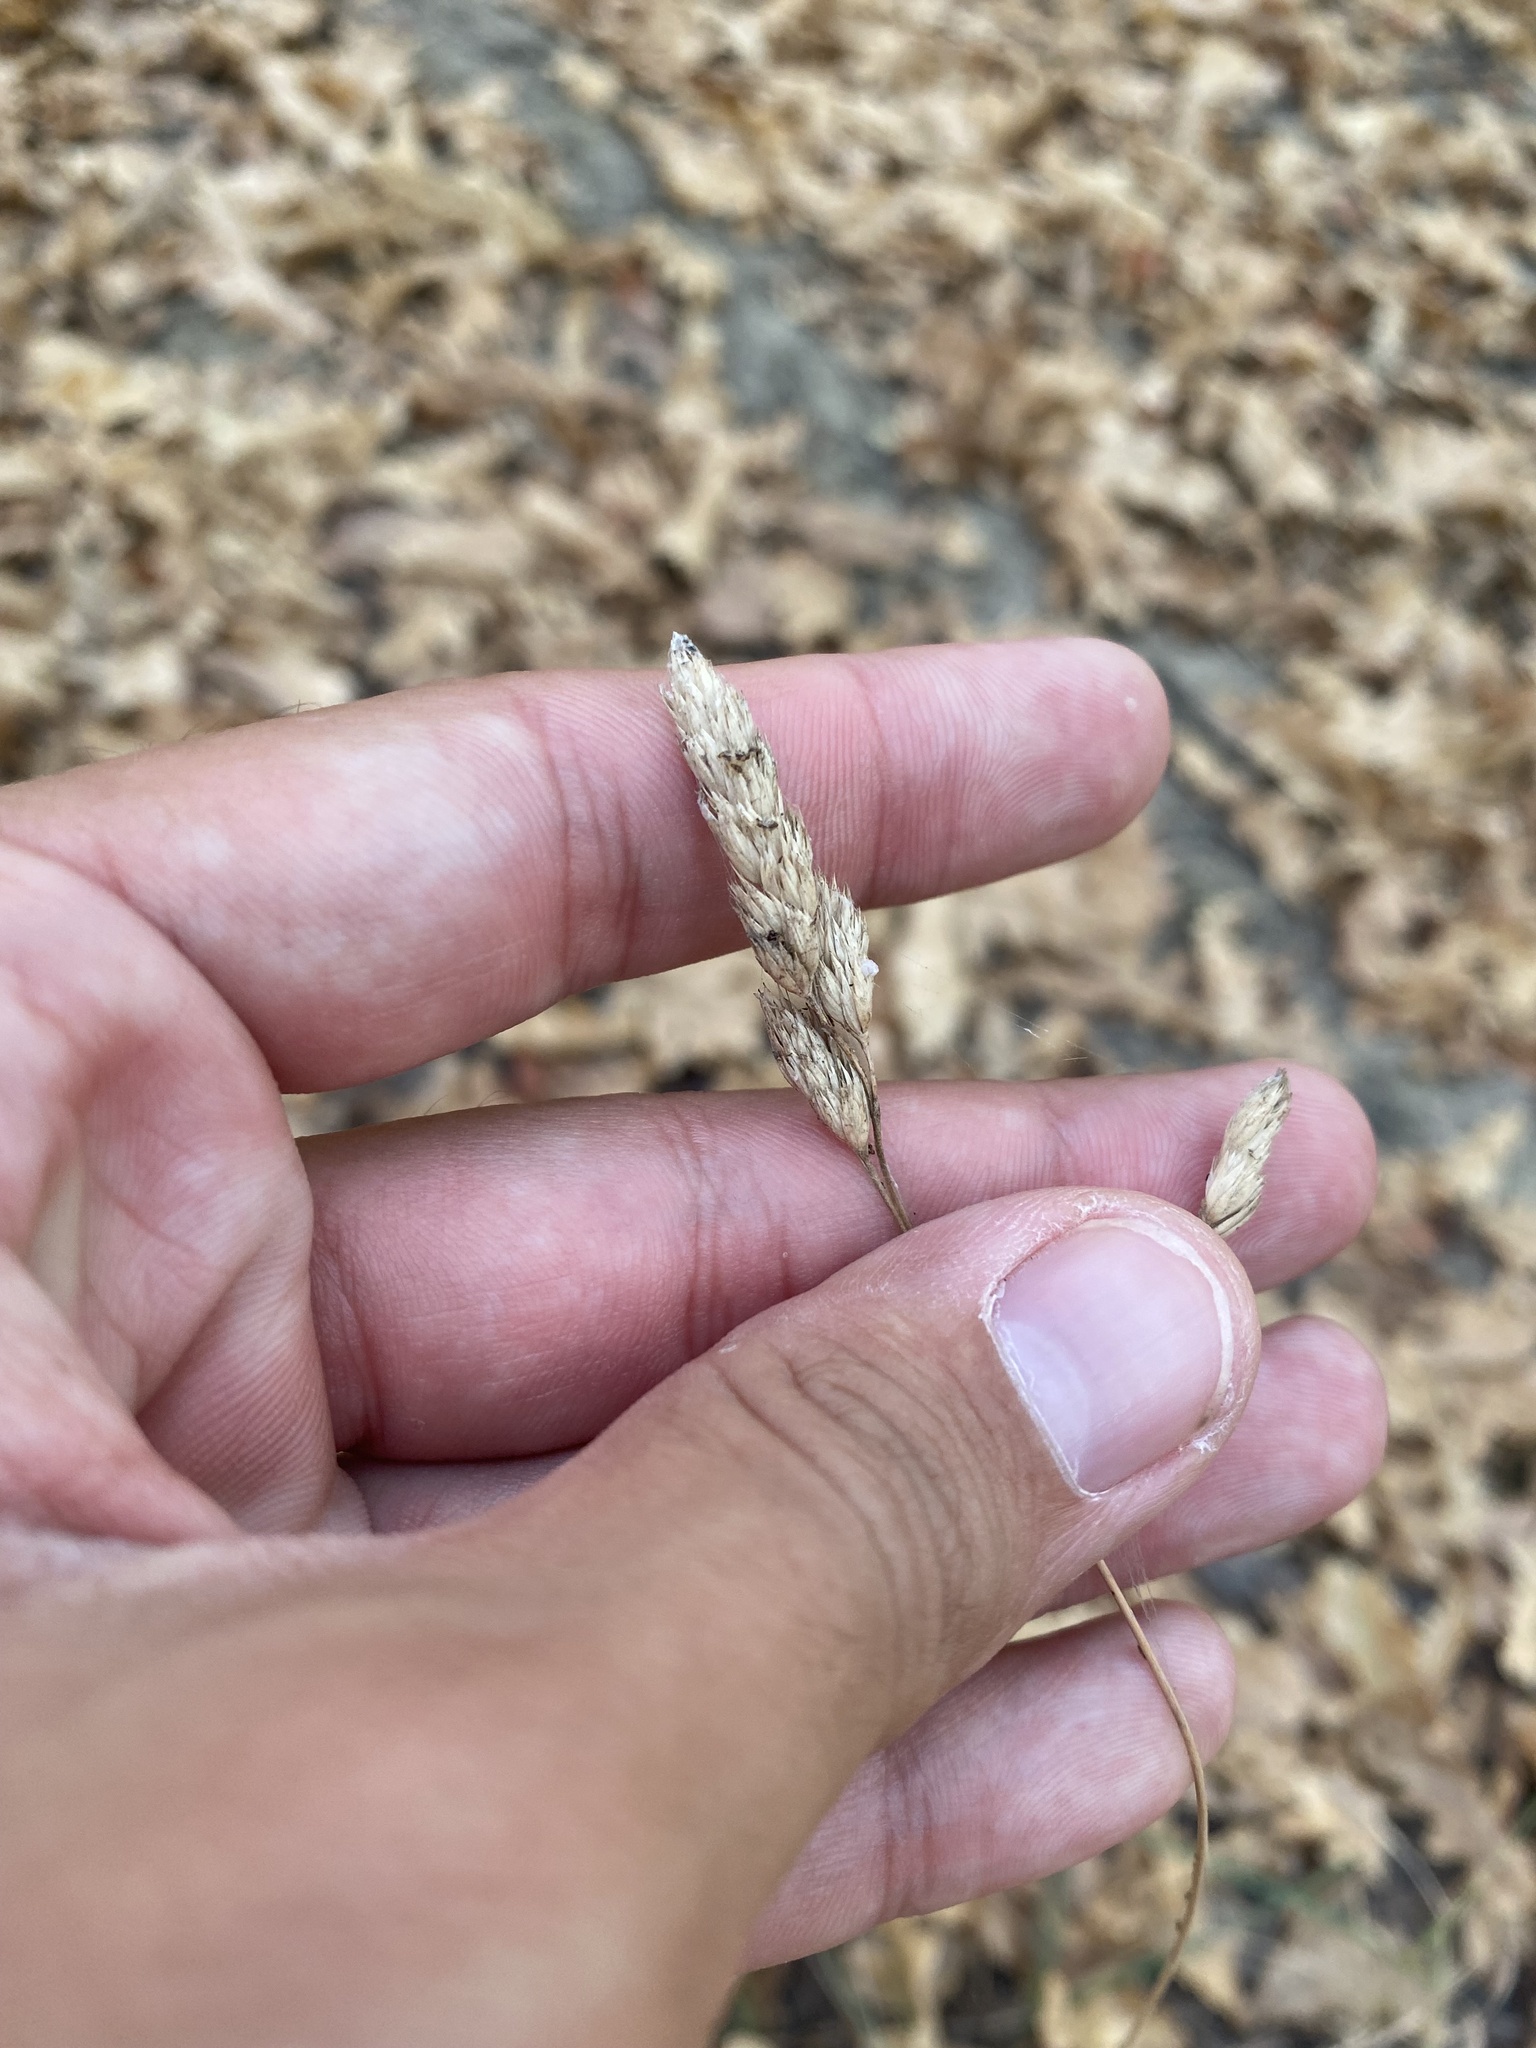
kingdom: Plantae
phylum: Tracheophyta
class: Liliopsida
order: Poales
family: Poaceae
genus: Dactylis
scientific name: Dactylis glomerata
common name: Orchardgrass
